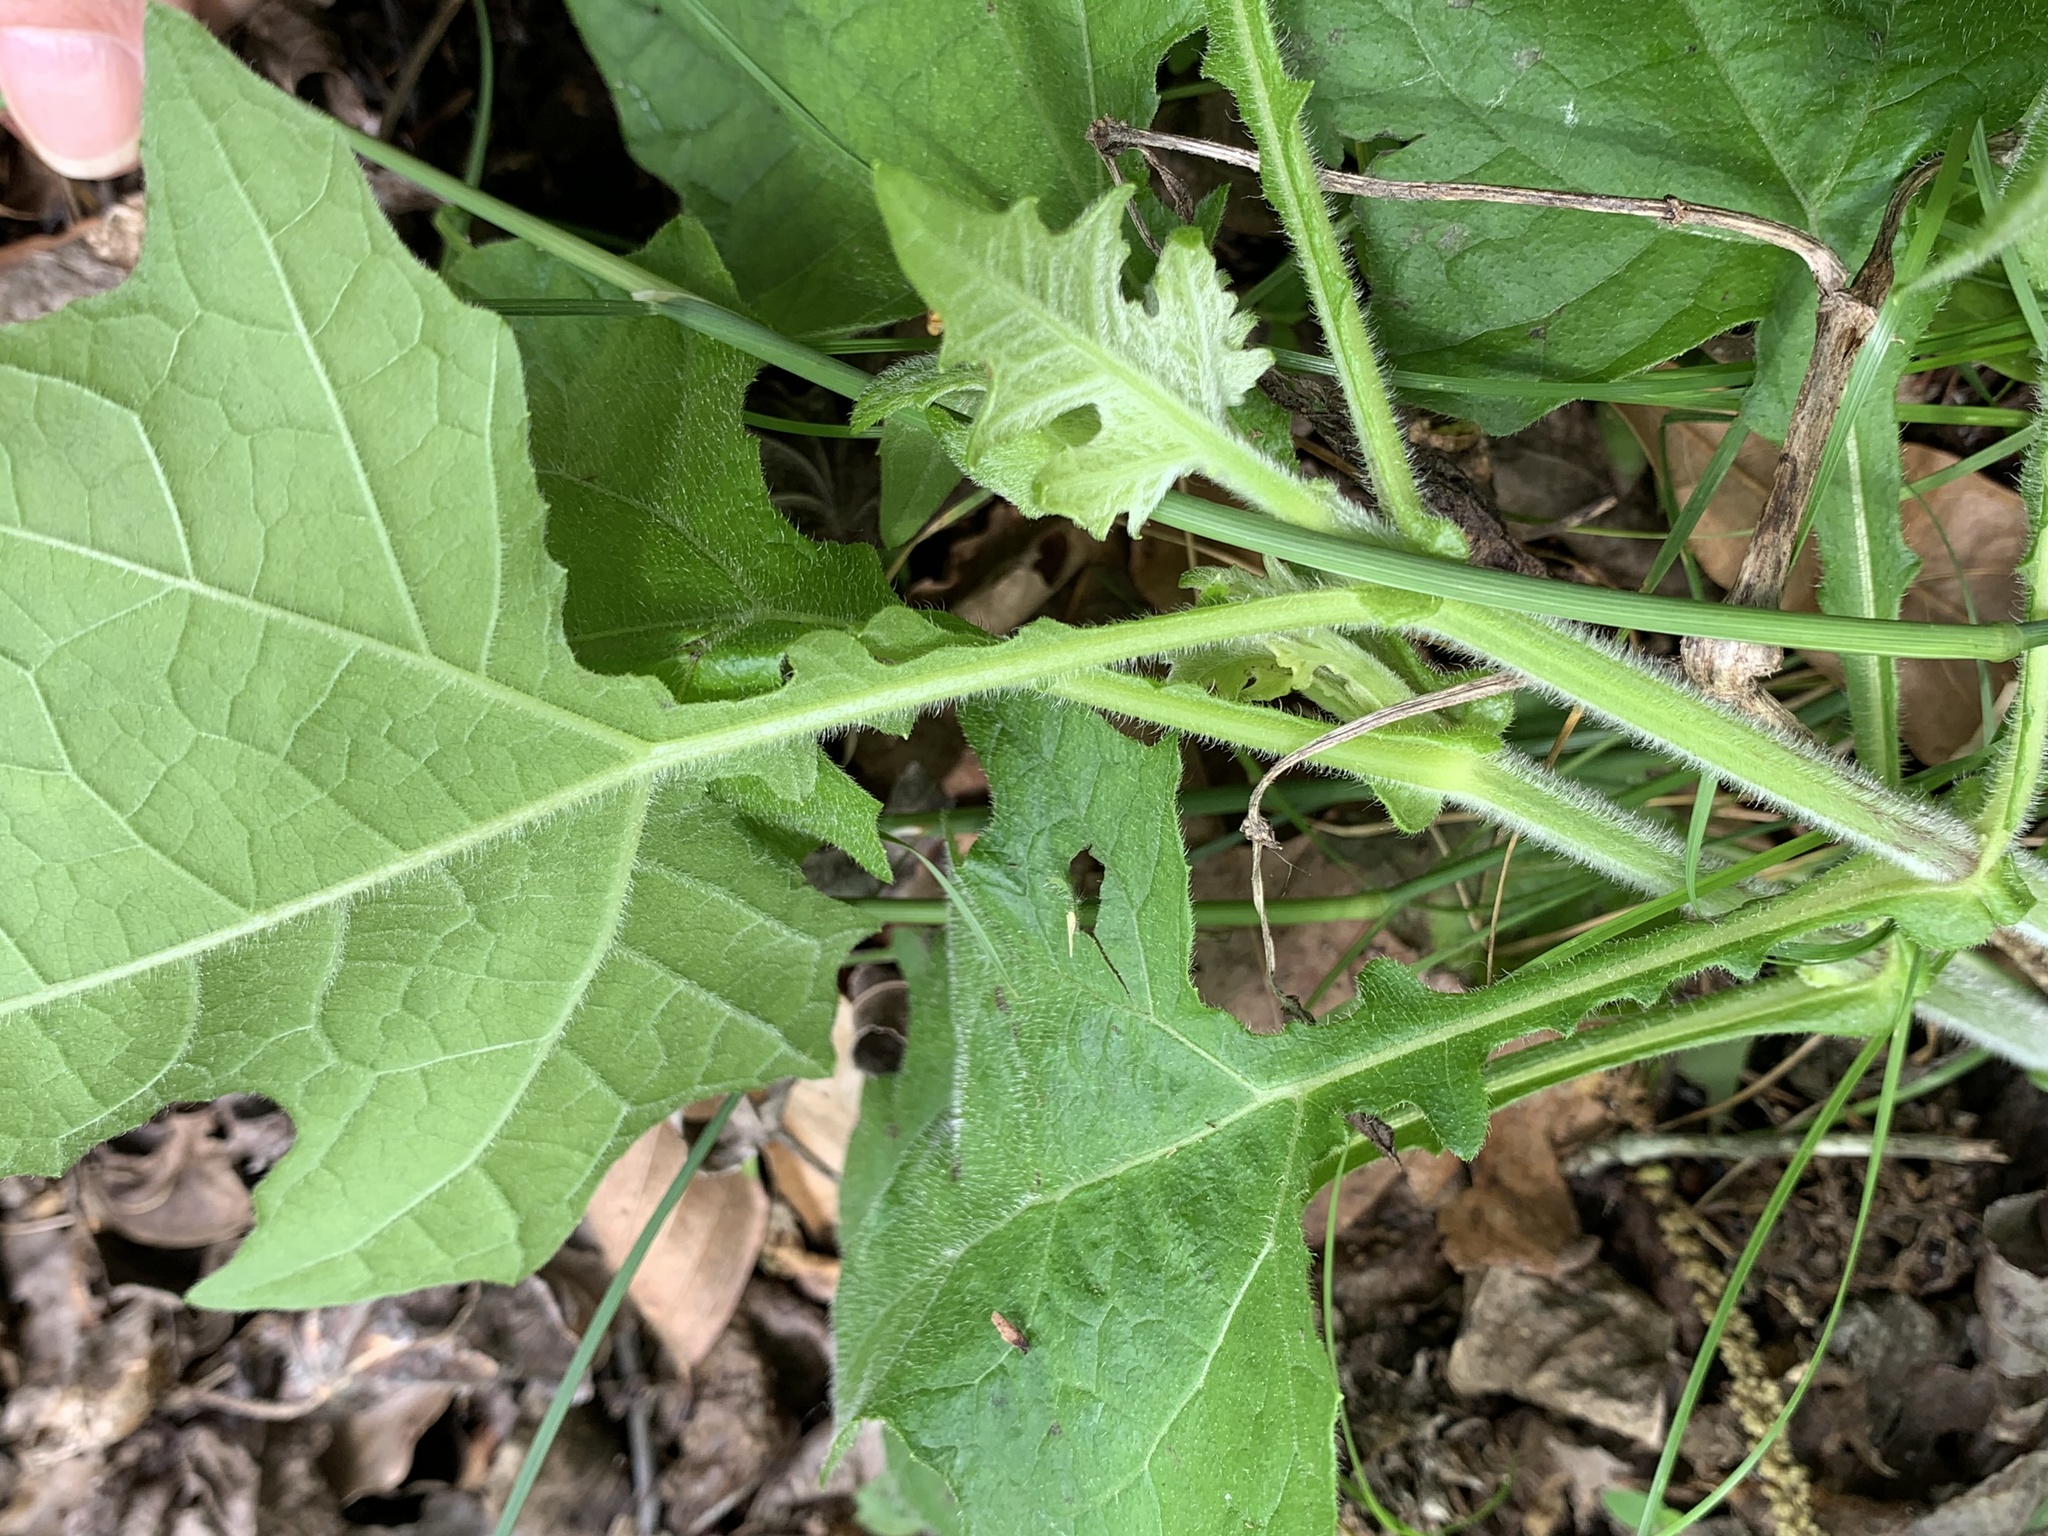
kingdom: Plantae
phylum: Tracheophyta
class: Magnoliopsida
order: Asterales
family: Asteraceae
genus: Smallanthus
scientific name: Smallanthus uvedalia
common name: Bear's-foot
